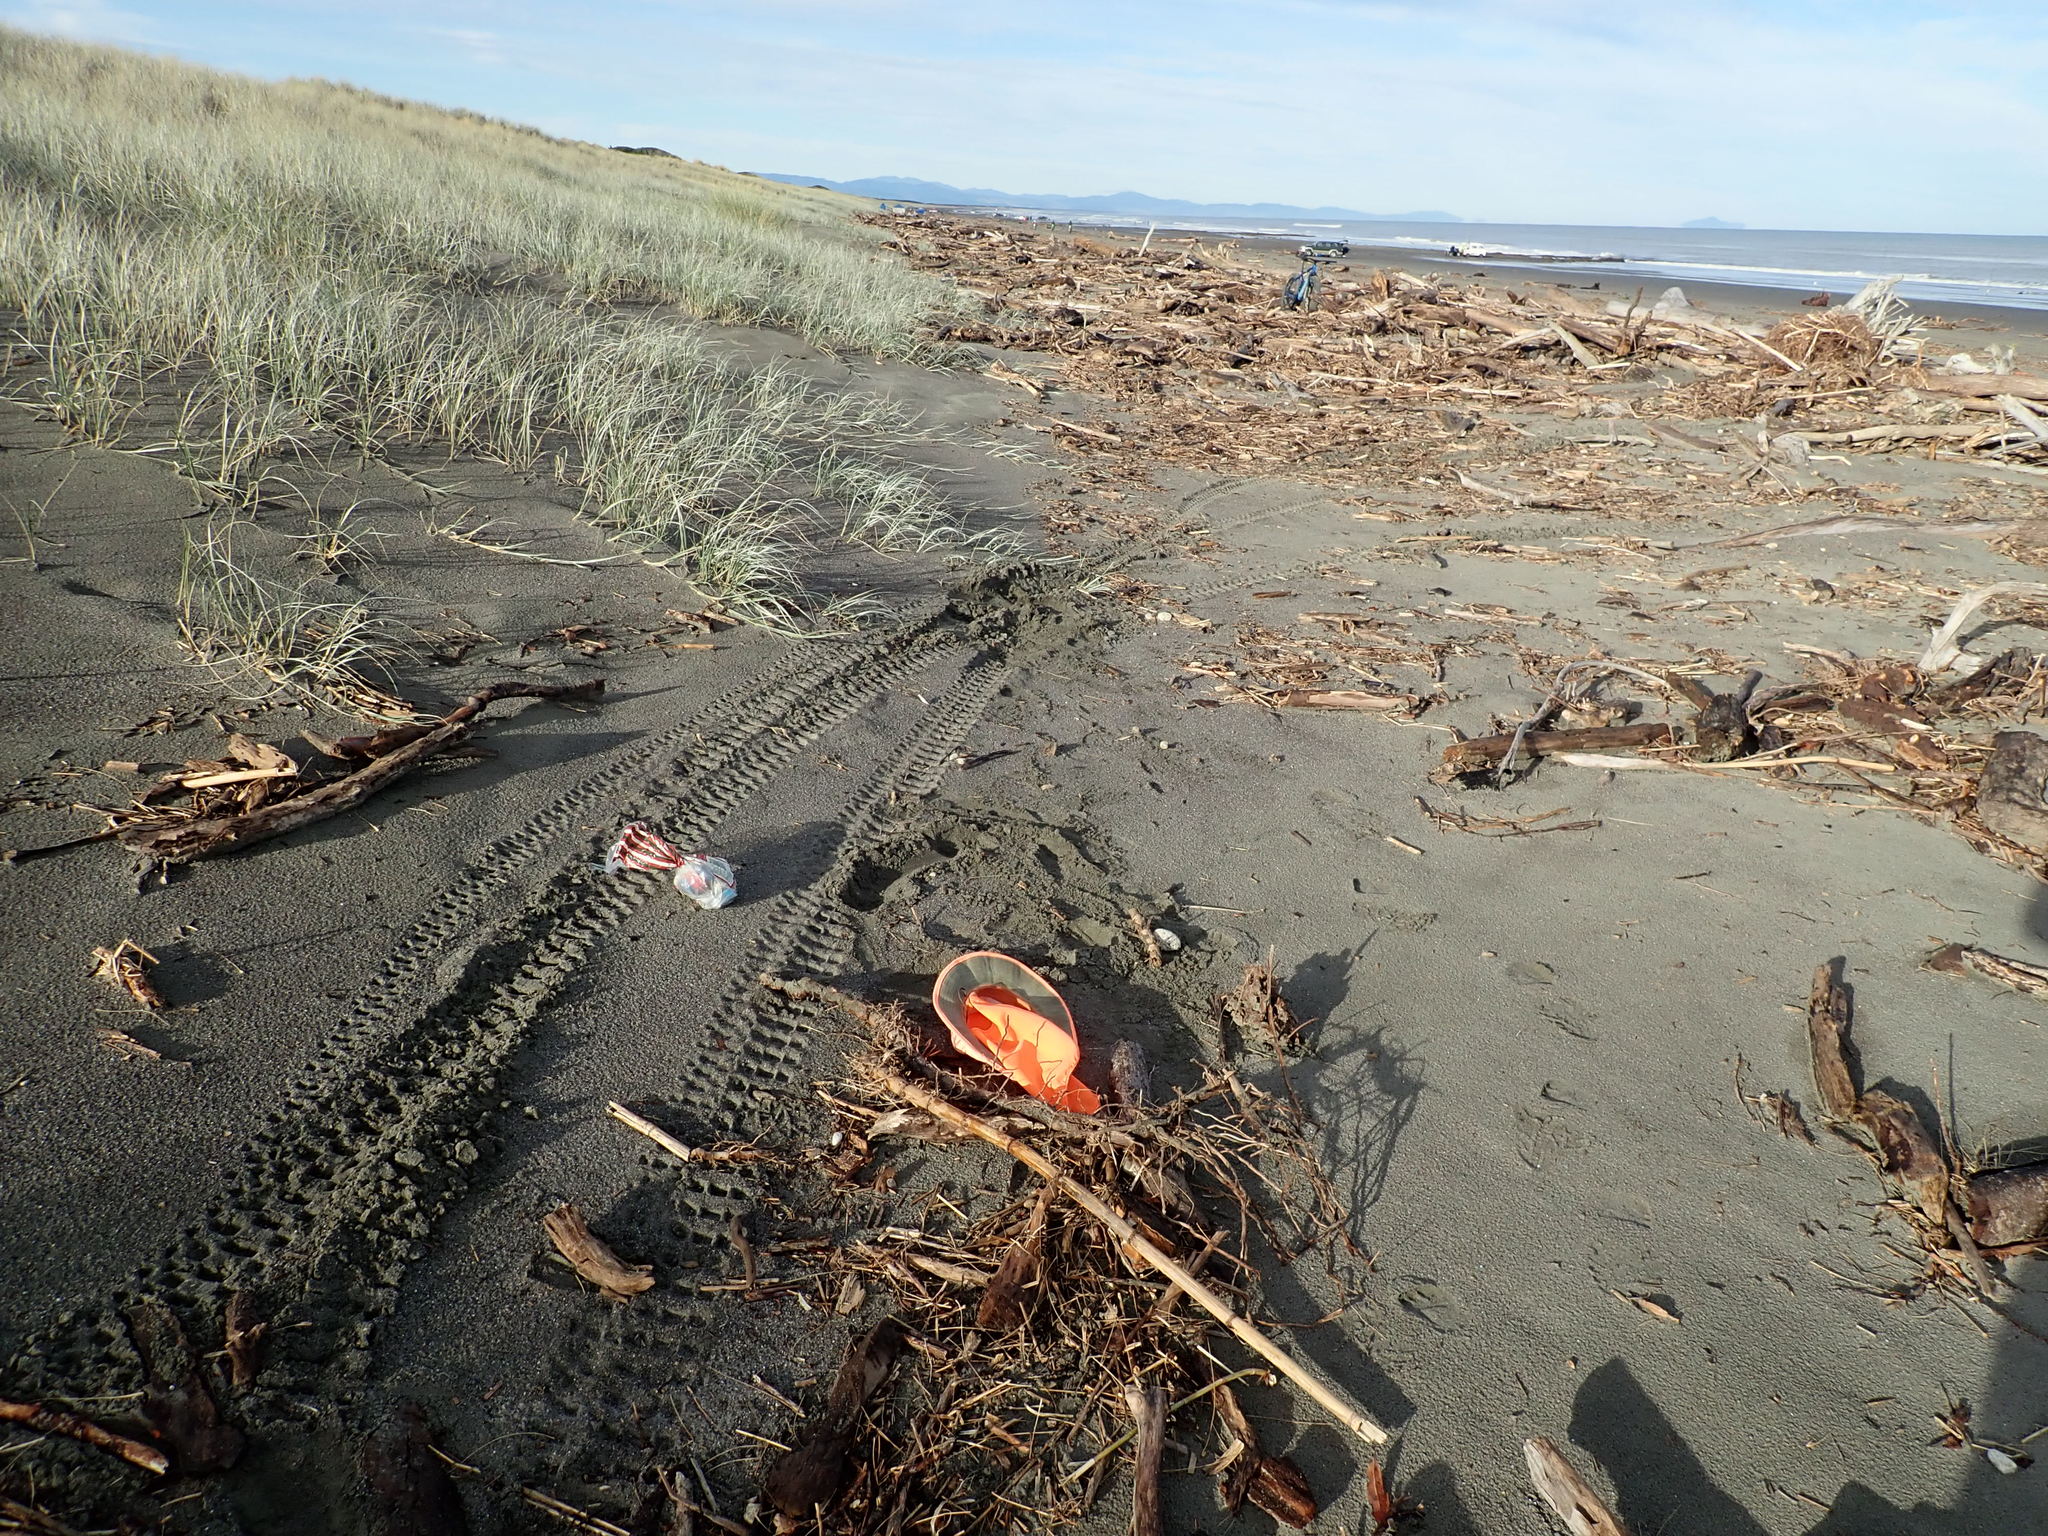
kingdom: Plantae
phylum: Tracheophyta
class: Liliopsida
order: Poales
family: Poaceae
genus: Phragmites
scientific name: Phragmites karka
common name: Tropical reed
